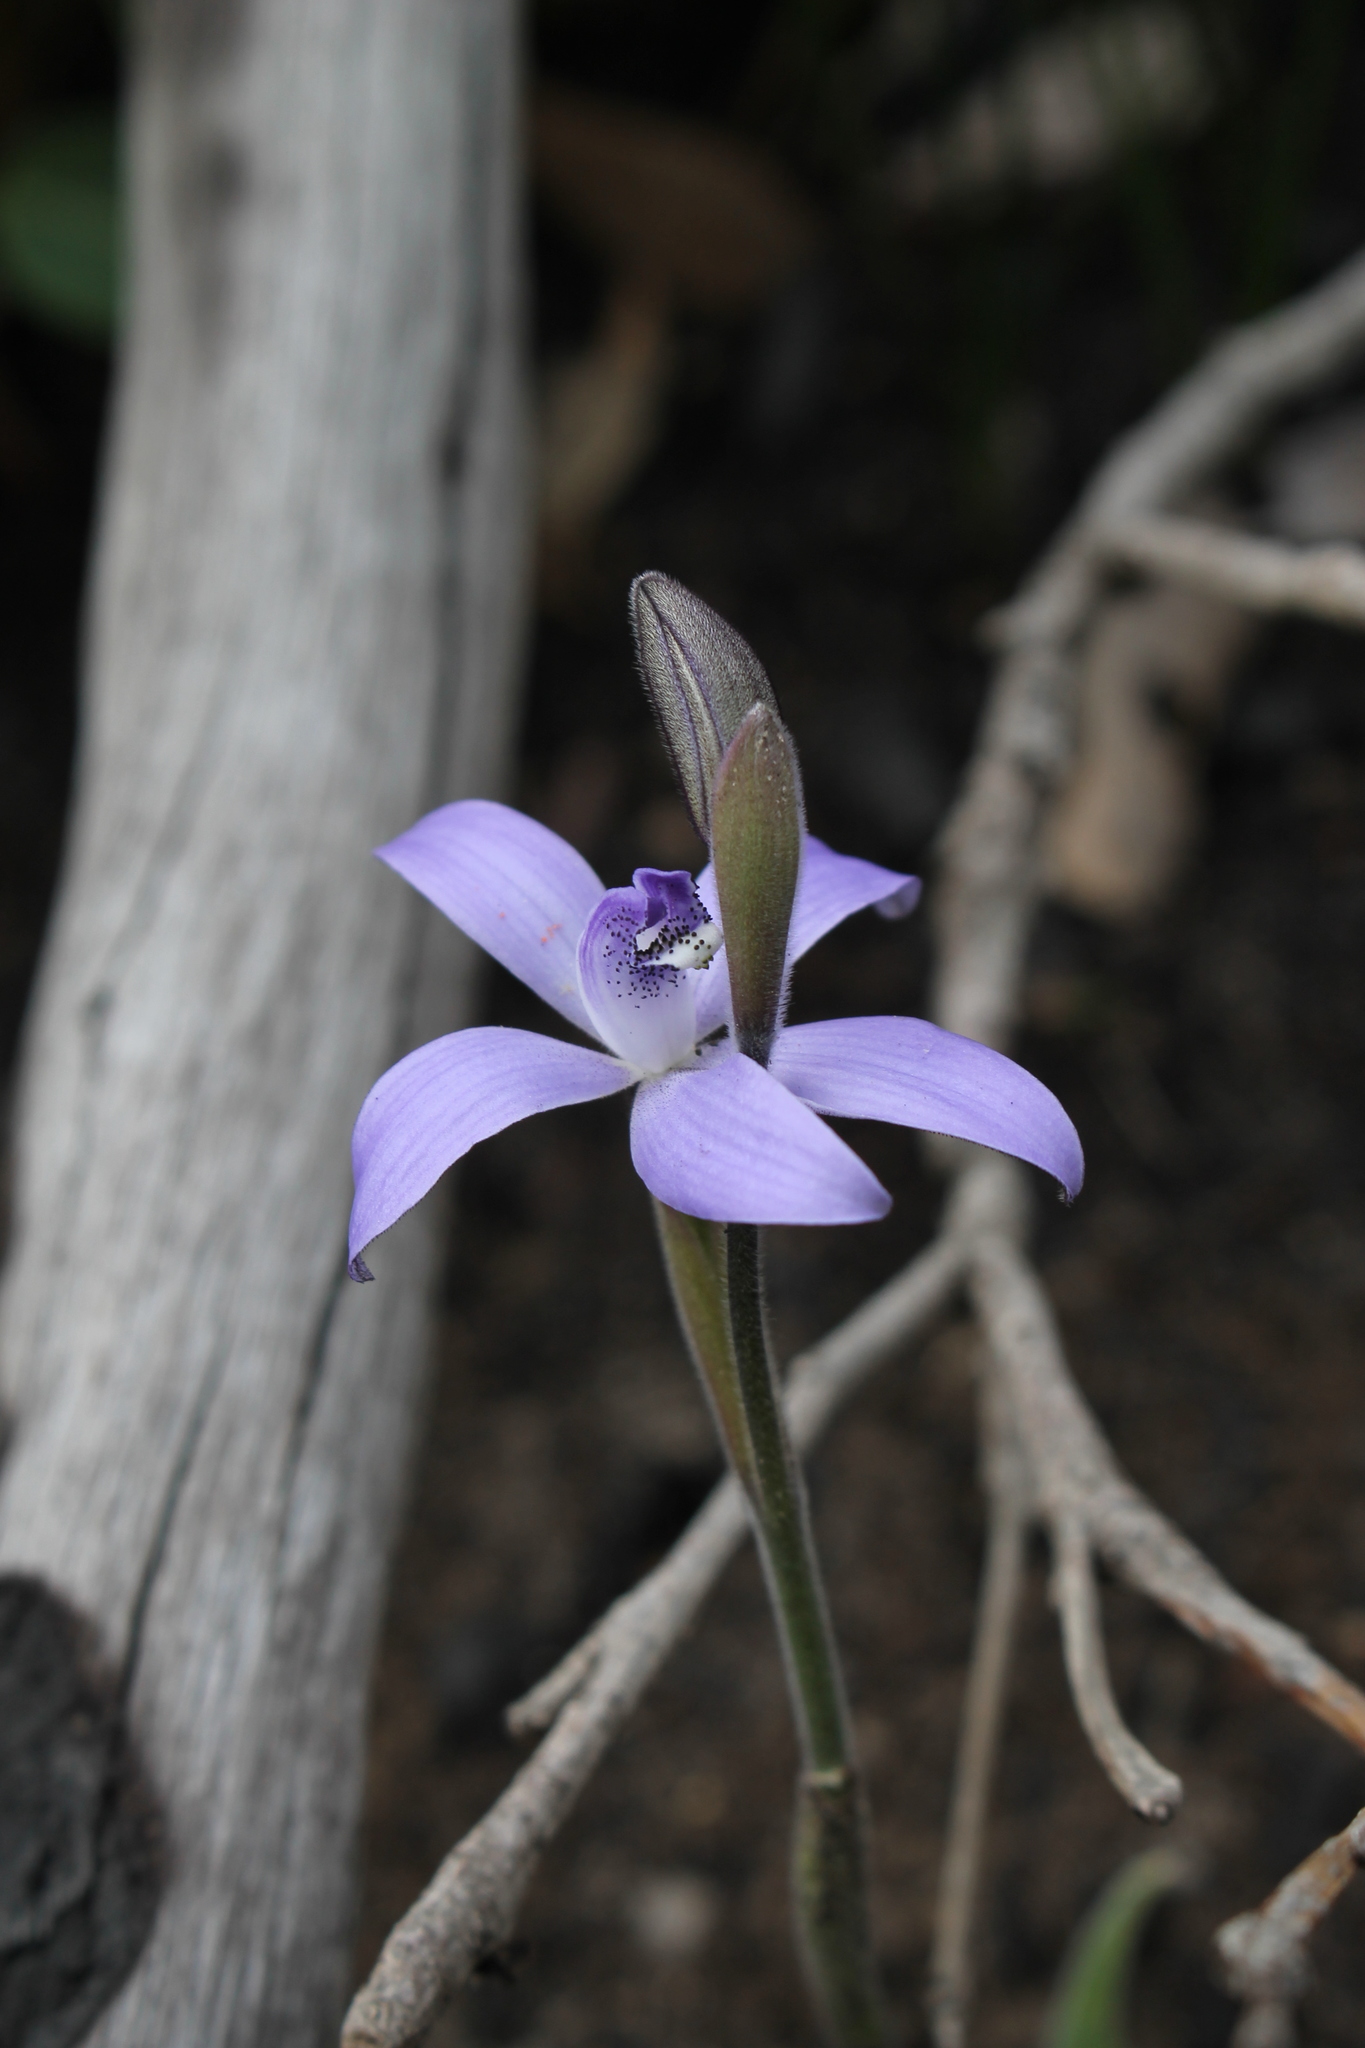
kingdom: Plantae
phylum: Tracheophyta
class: Liliopsida
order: Asparagales
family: Orchidaceae
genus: Caladenia
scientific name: Caladenia sericea
